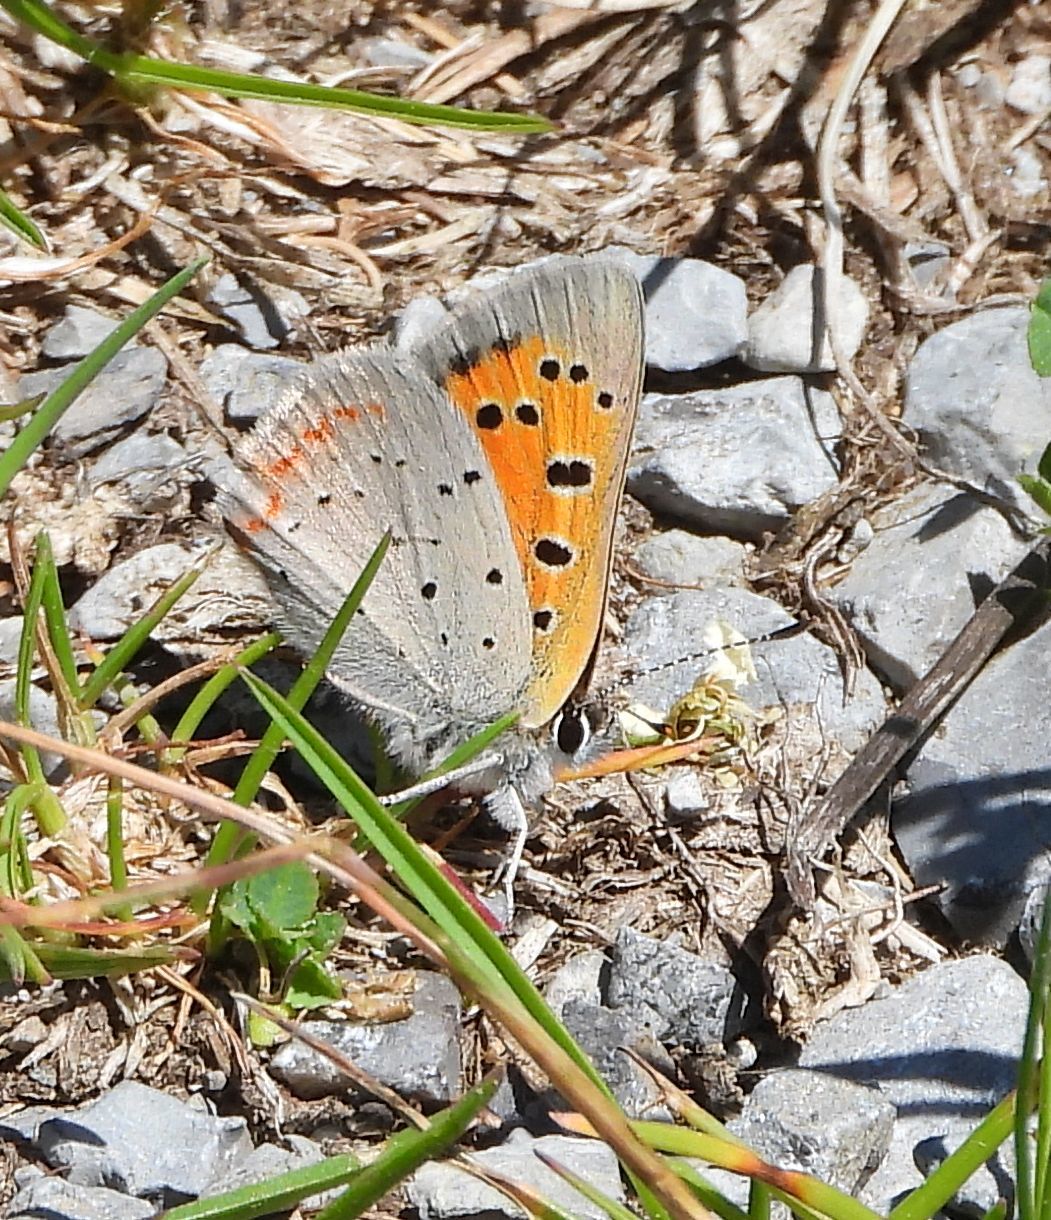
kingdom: Animalia
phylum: Arthropoda
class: Insecta
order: Lepidoptera
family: Lycaenidae
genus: Lycaena
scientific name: Lycaena hypophlaeas
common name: American copper
